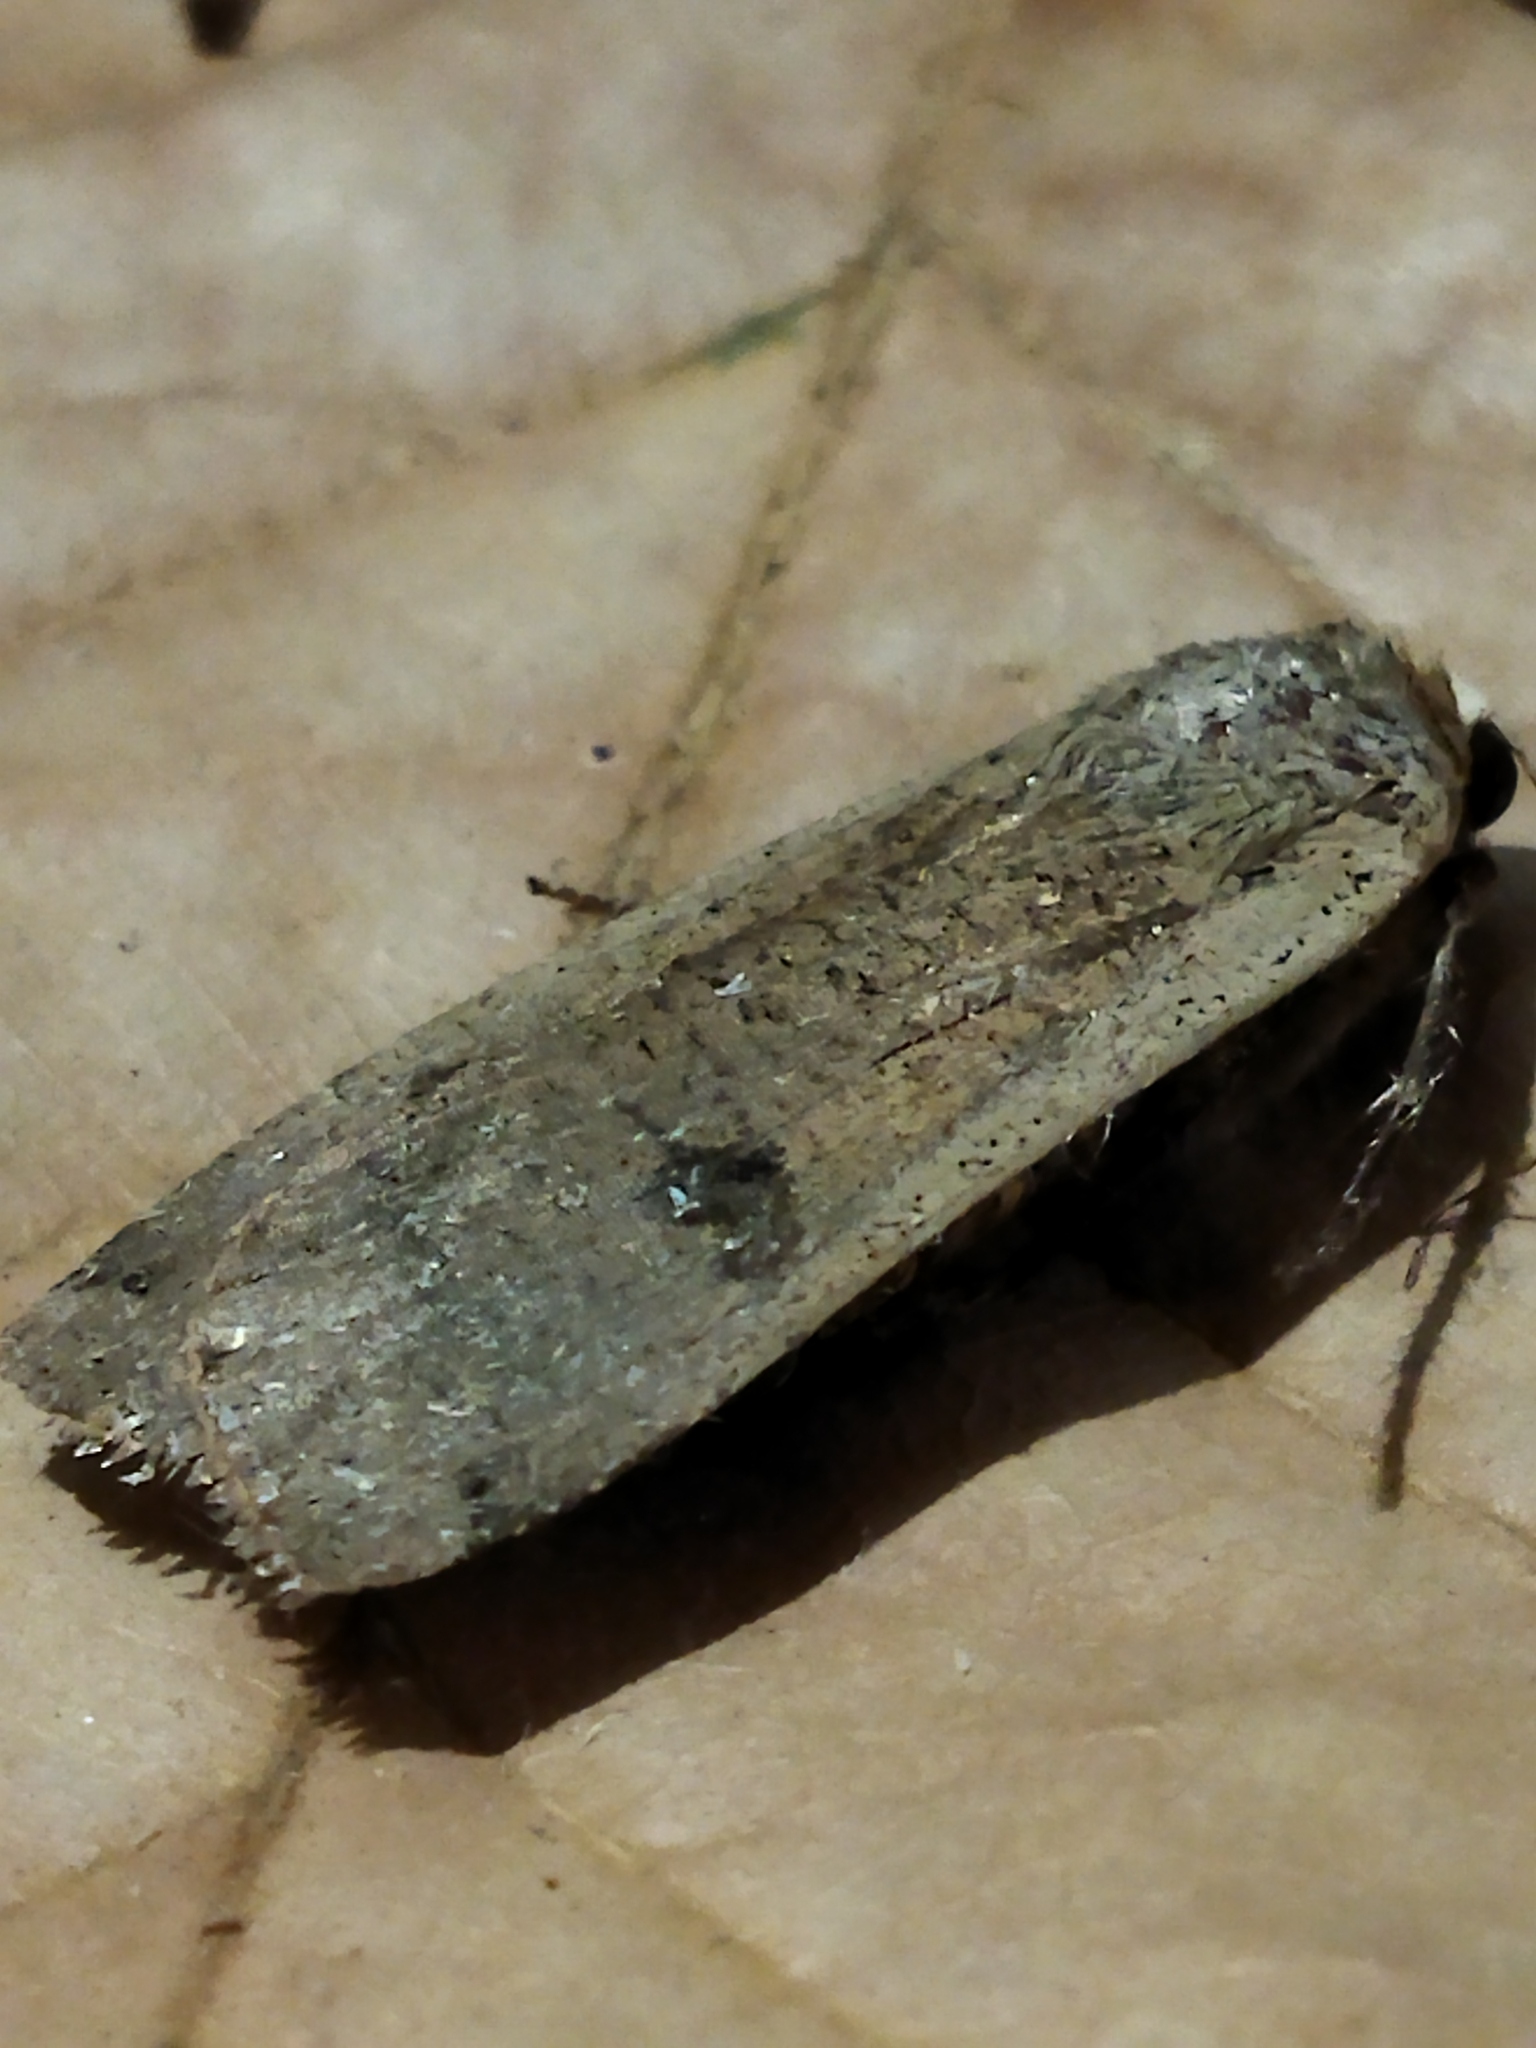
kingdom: Animalia
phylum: Arthropoda
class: Insecta
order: Lepidoptera
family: Noctuidae
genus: Noctua
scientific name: Noctua pronuba
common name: Large yellow underwing
